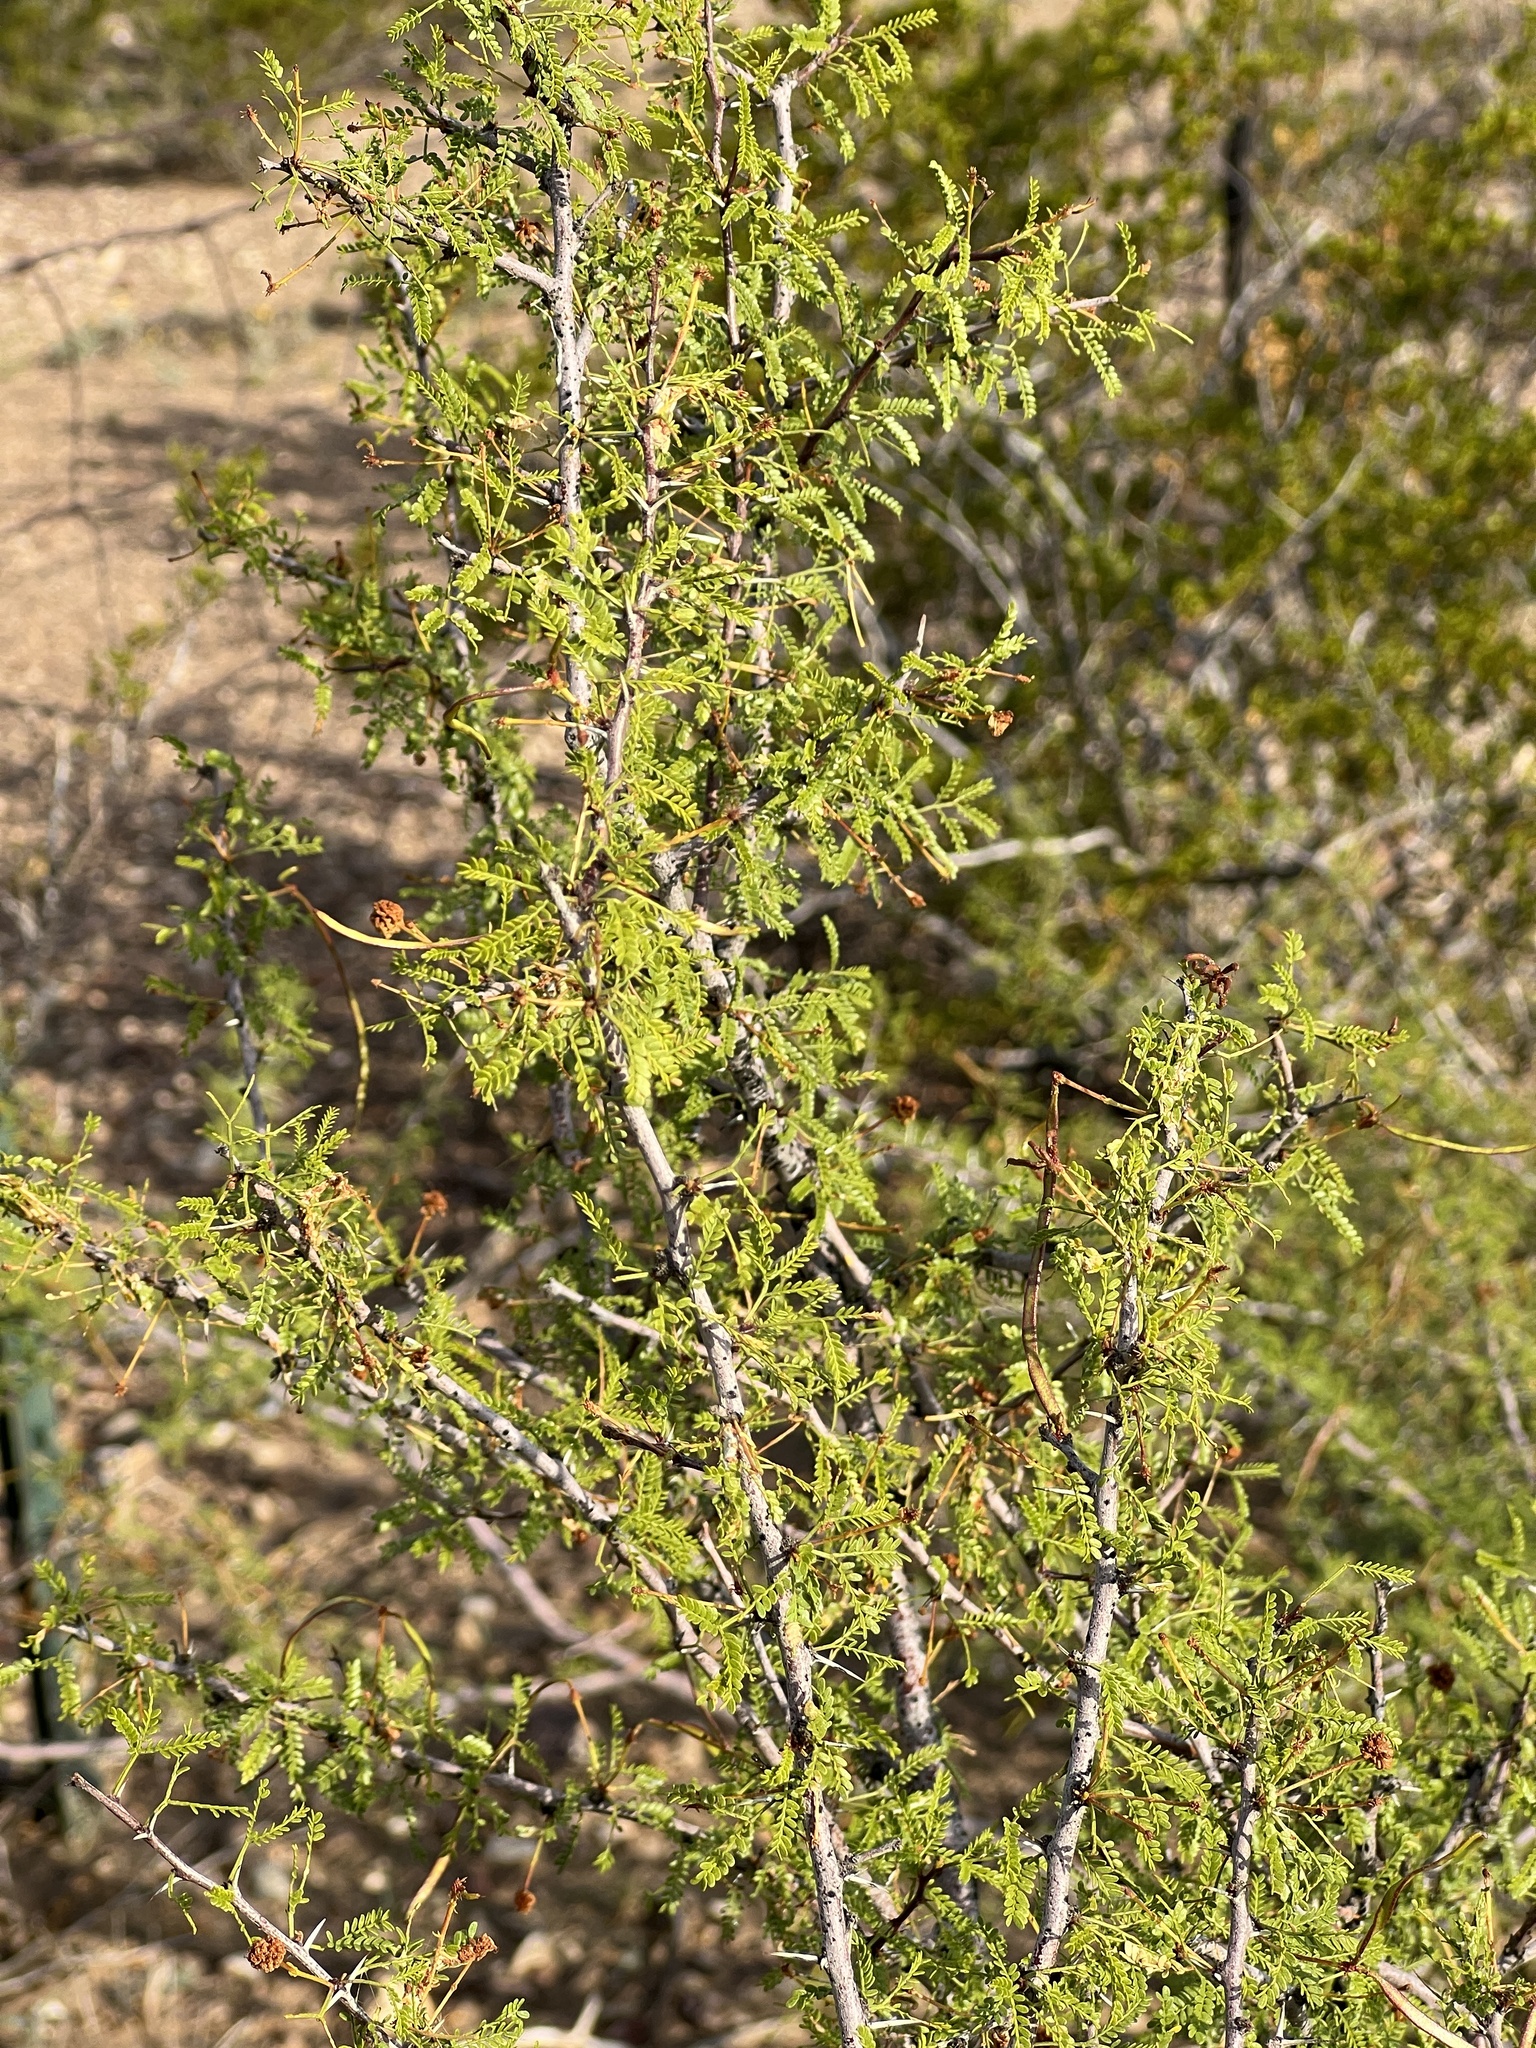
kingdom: Plantae
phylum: Tracheophyta
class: Magnoliopsida
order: Fabales
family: Fabaceae
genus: Vachellia
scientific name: Vachellia vernicosa
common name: Viscid acacia
